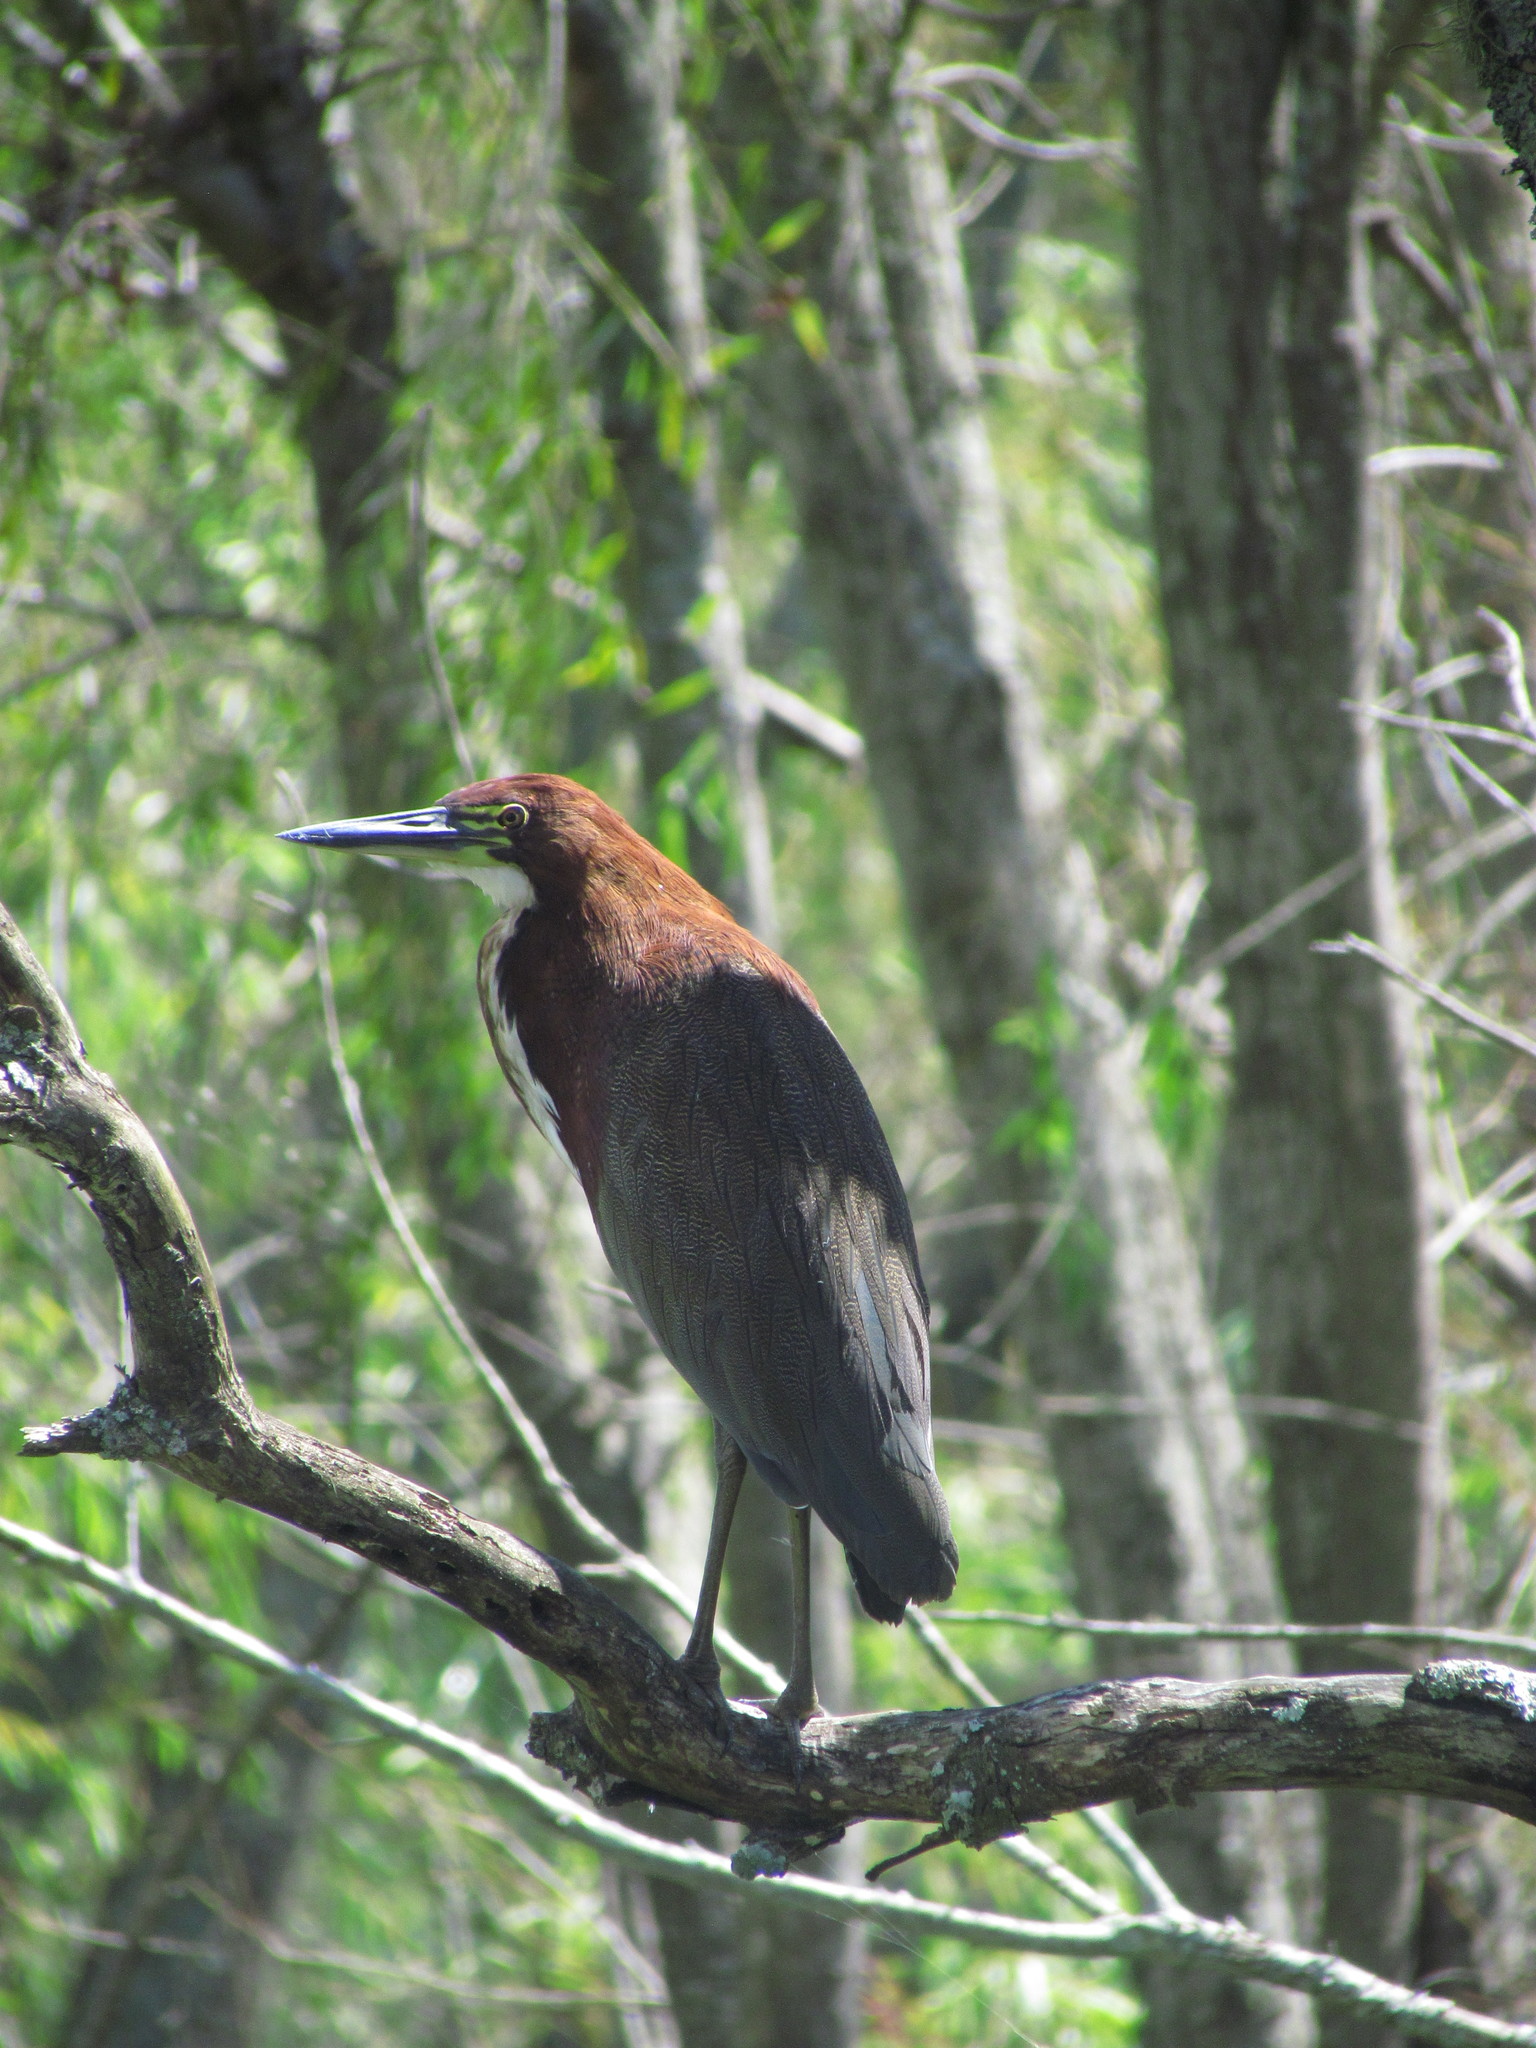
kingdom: Animalia
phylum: Chordata
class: Aves
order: Pelecaniformes
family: Ardeidae
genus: Tigrisoma
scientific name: Tigrisoma lineatum
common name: Rufescent tiger-heron
